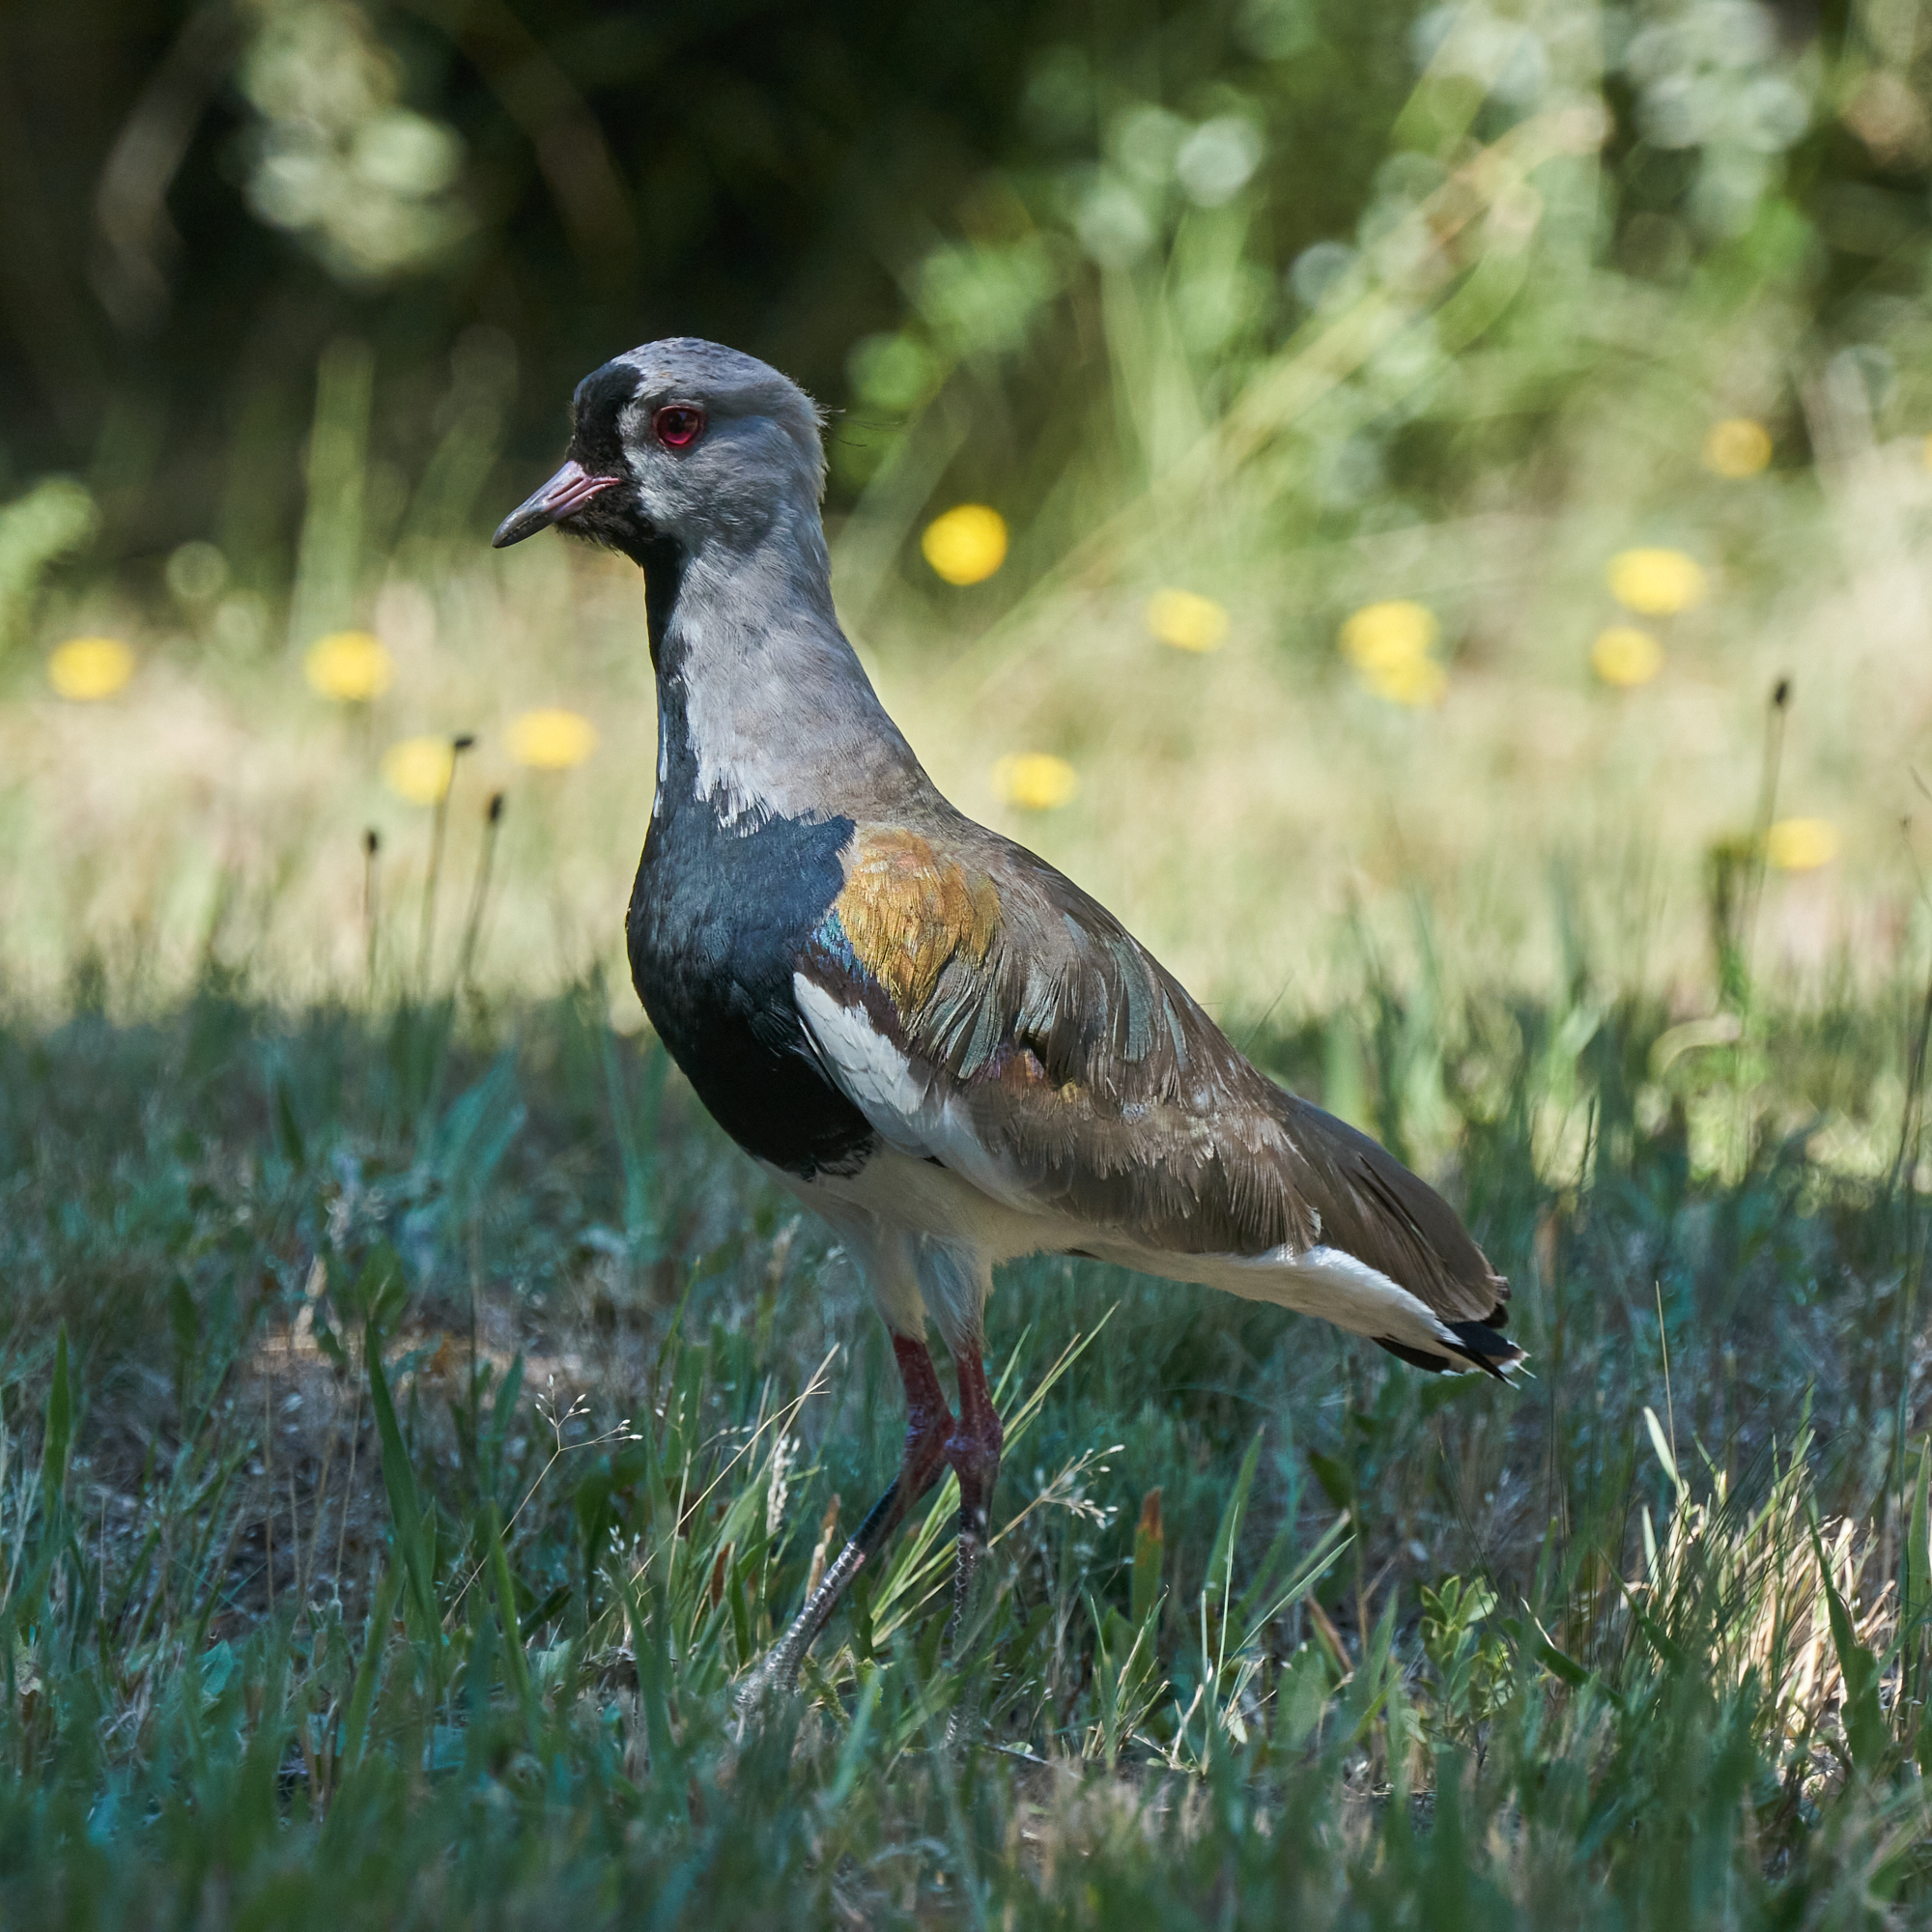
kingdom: Animalia
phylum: Chordata
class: Aves
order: Charadriiformes
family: Charadriidae
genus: Vanellus
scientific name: Vanellus chilensis
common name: Southern lapwing
